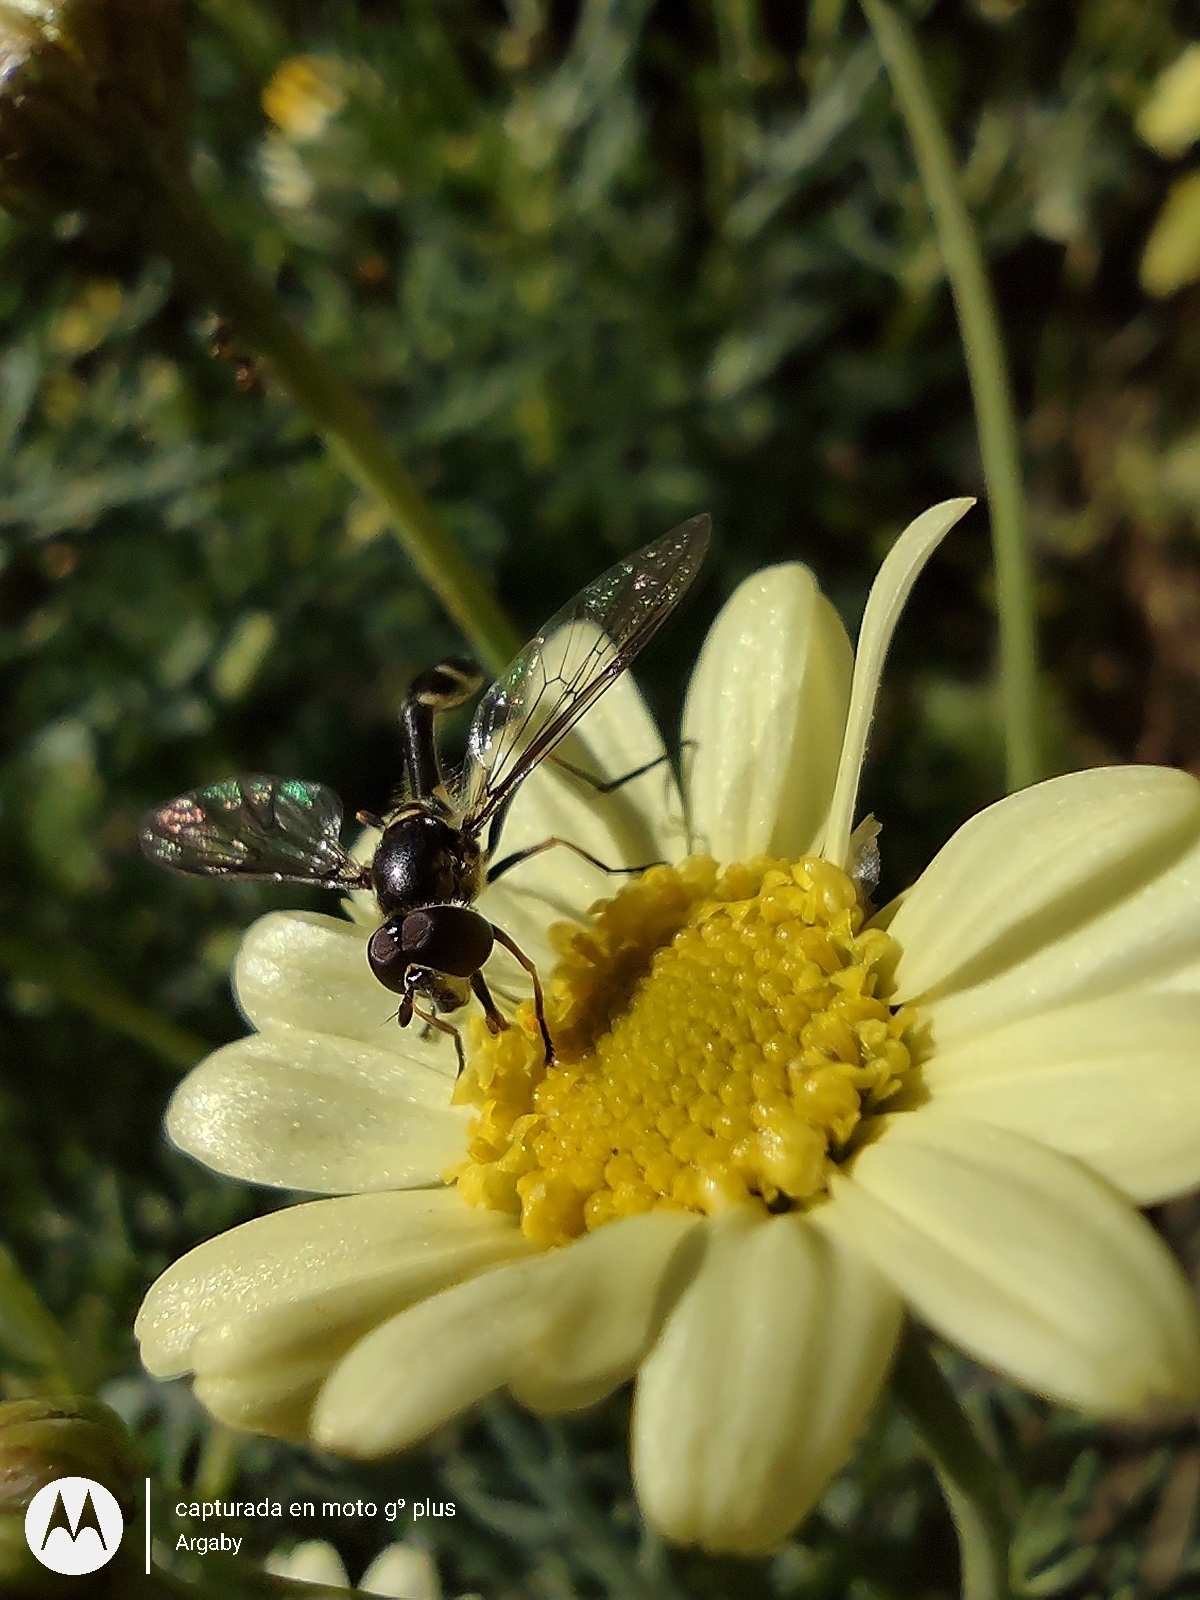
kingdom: Animalia
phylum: Arthropoda
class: Insecta
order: Diptera
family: Syrphidae
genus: Dioprosopa
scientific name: Dioprosopa clavatus
